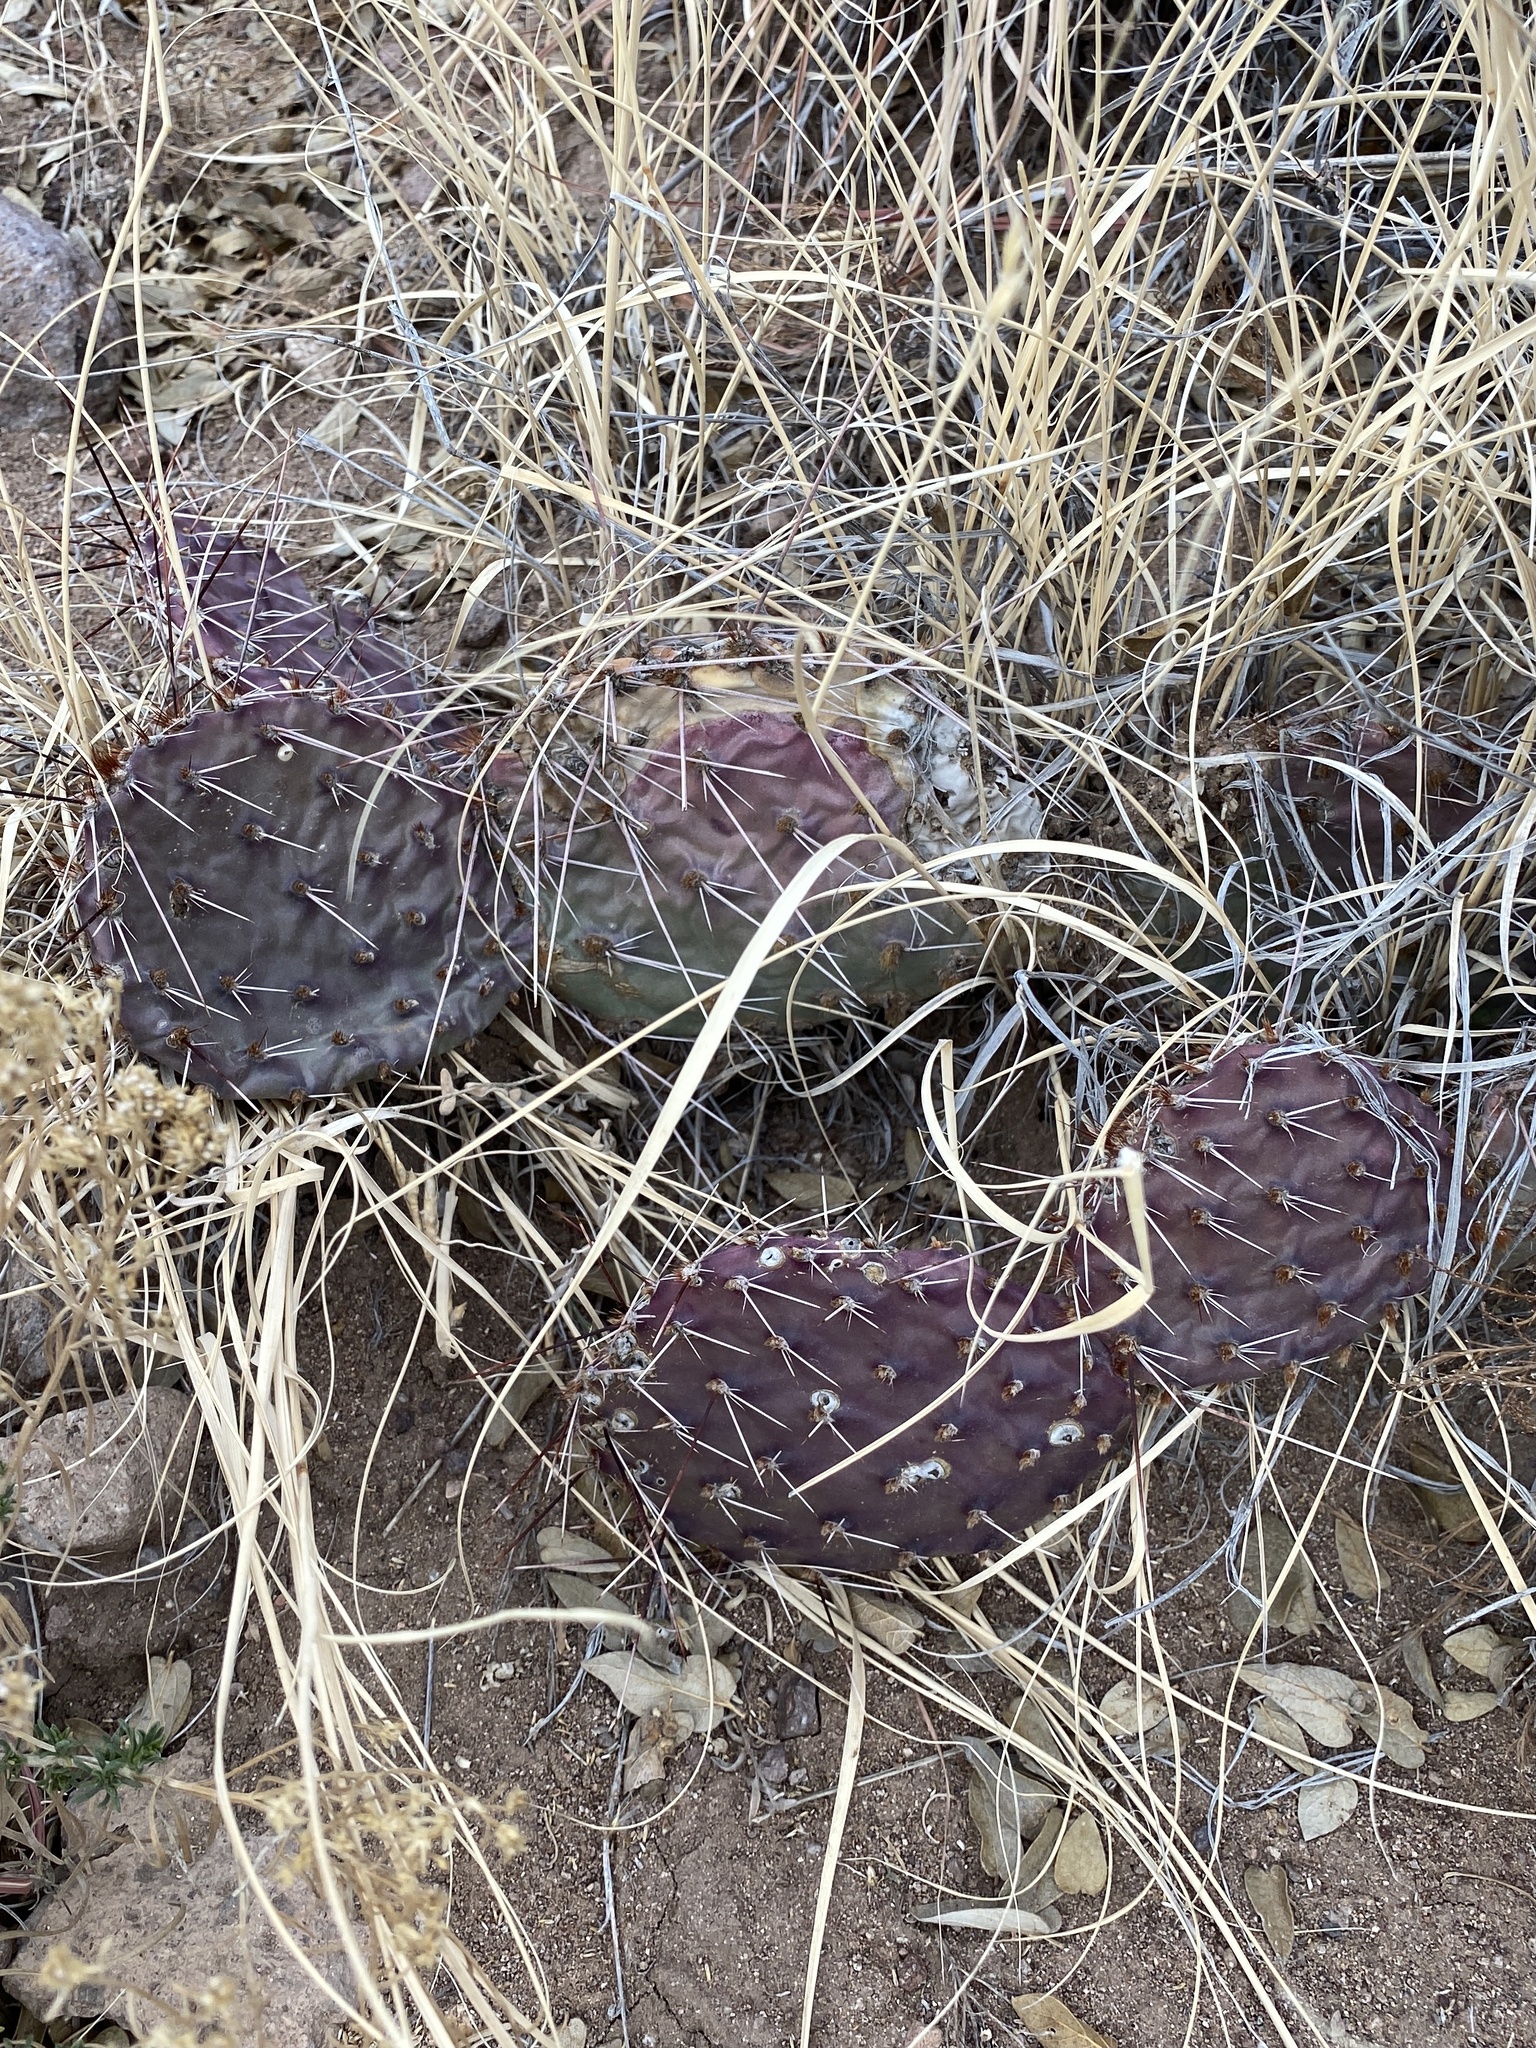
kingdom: Plantae
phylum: Tracheophyta
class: Magnoliopsida
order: Caryophyllales
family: Cactaceae
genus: Opuntia
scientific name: Opuntia macrorhiza
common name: Grassland pricklypear
